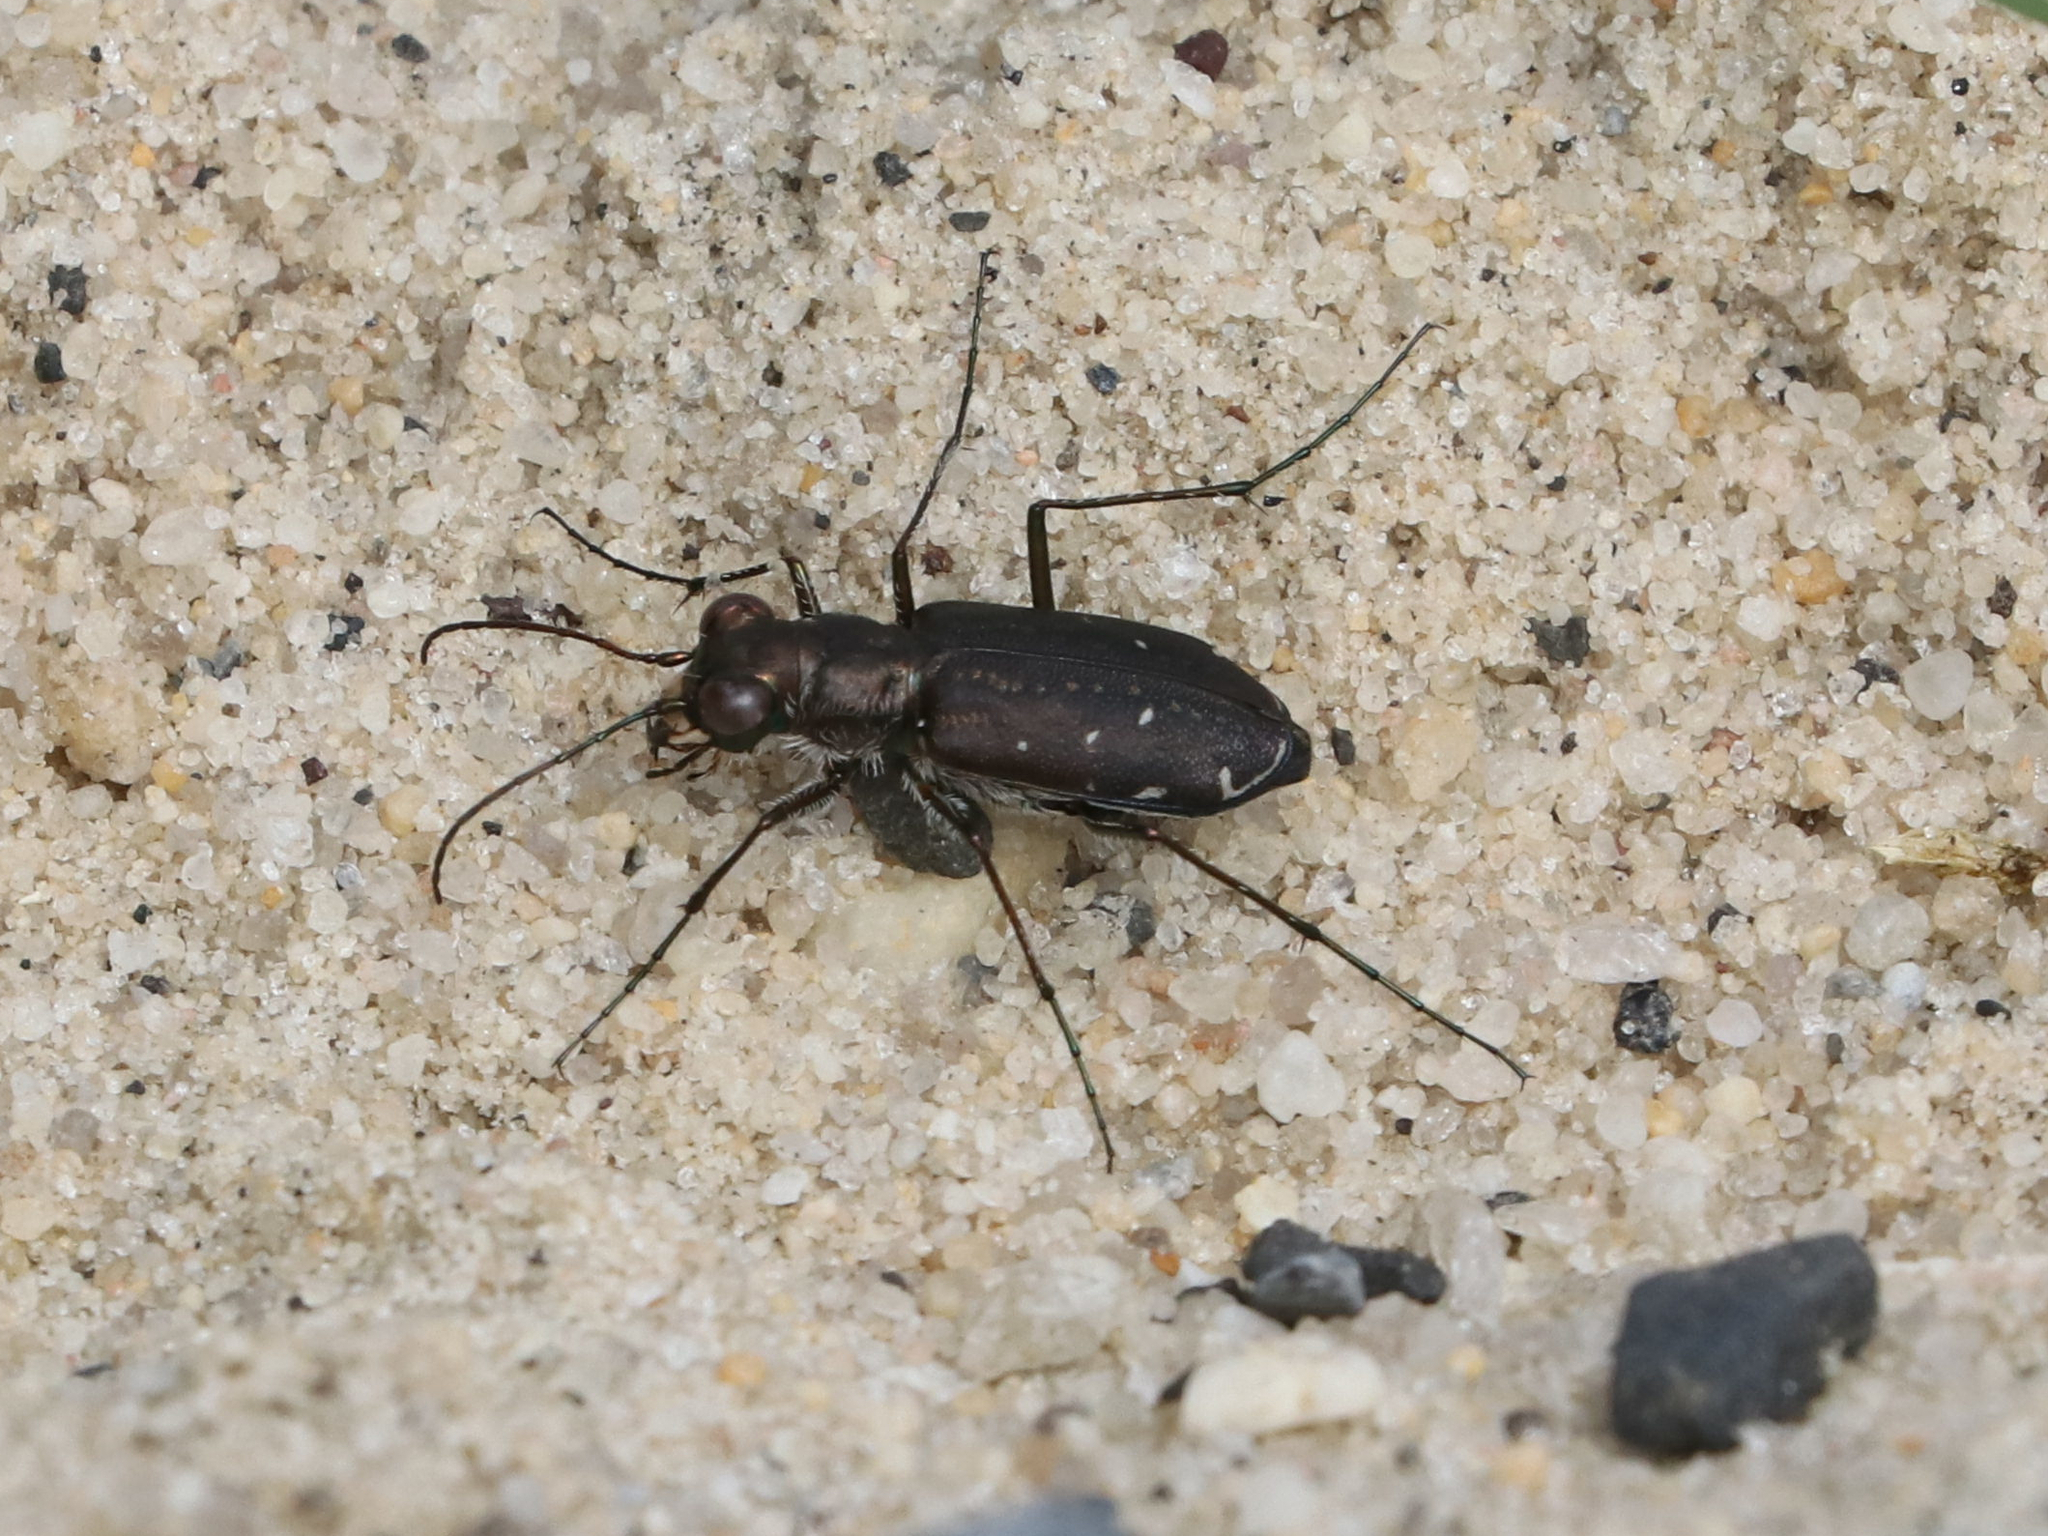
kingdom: Animalia
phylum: Arthropoda
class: Insecta
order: Coleoptera
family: Carabidae
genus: Cicindela
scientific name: Cicindela punctulata
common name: Punctured tiger beetle
